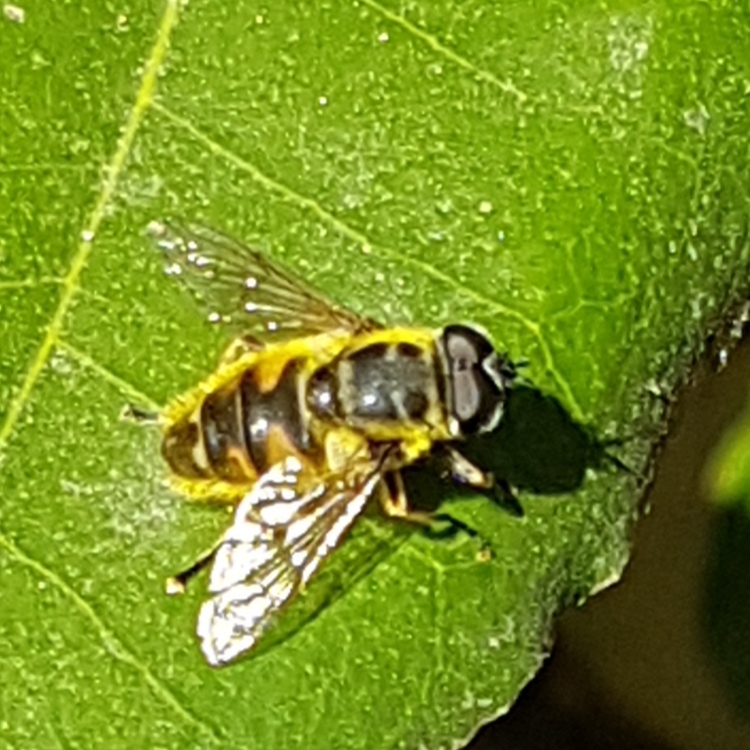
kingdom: Animalia
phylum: Arthropoda
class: Insecta
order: Diptera
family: Syrphidae
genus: Myathropa
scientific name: Myathropa florea
